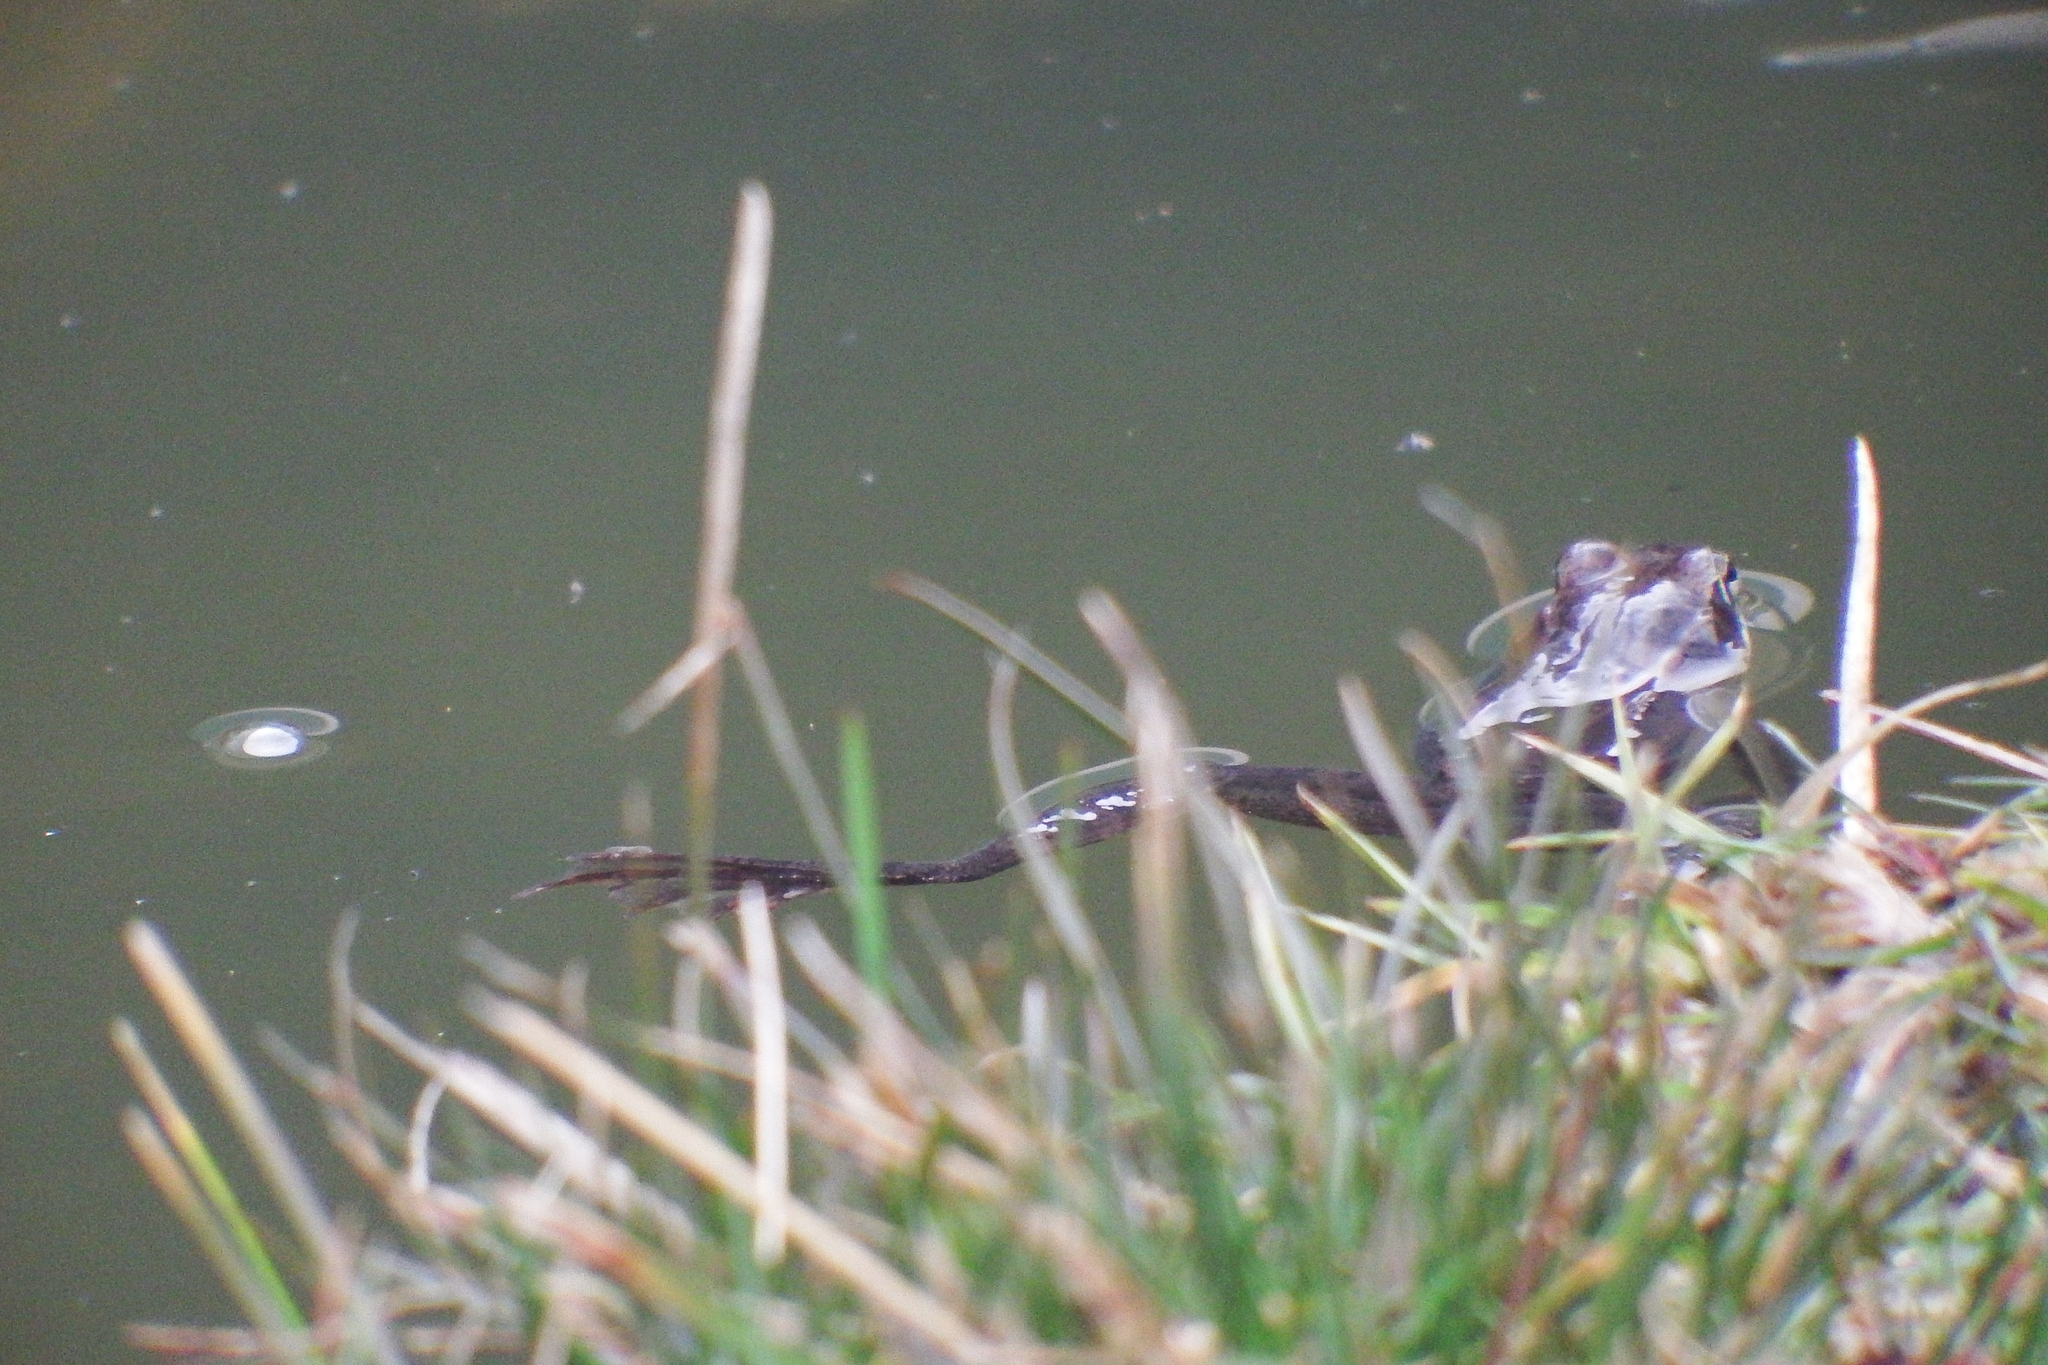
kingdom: Animalia
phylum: Chordata
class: Amphibia
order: Anura
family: Ranidae
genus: Lithobates
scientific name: Lithobates sylvaticus
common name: Wood frog
